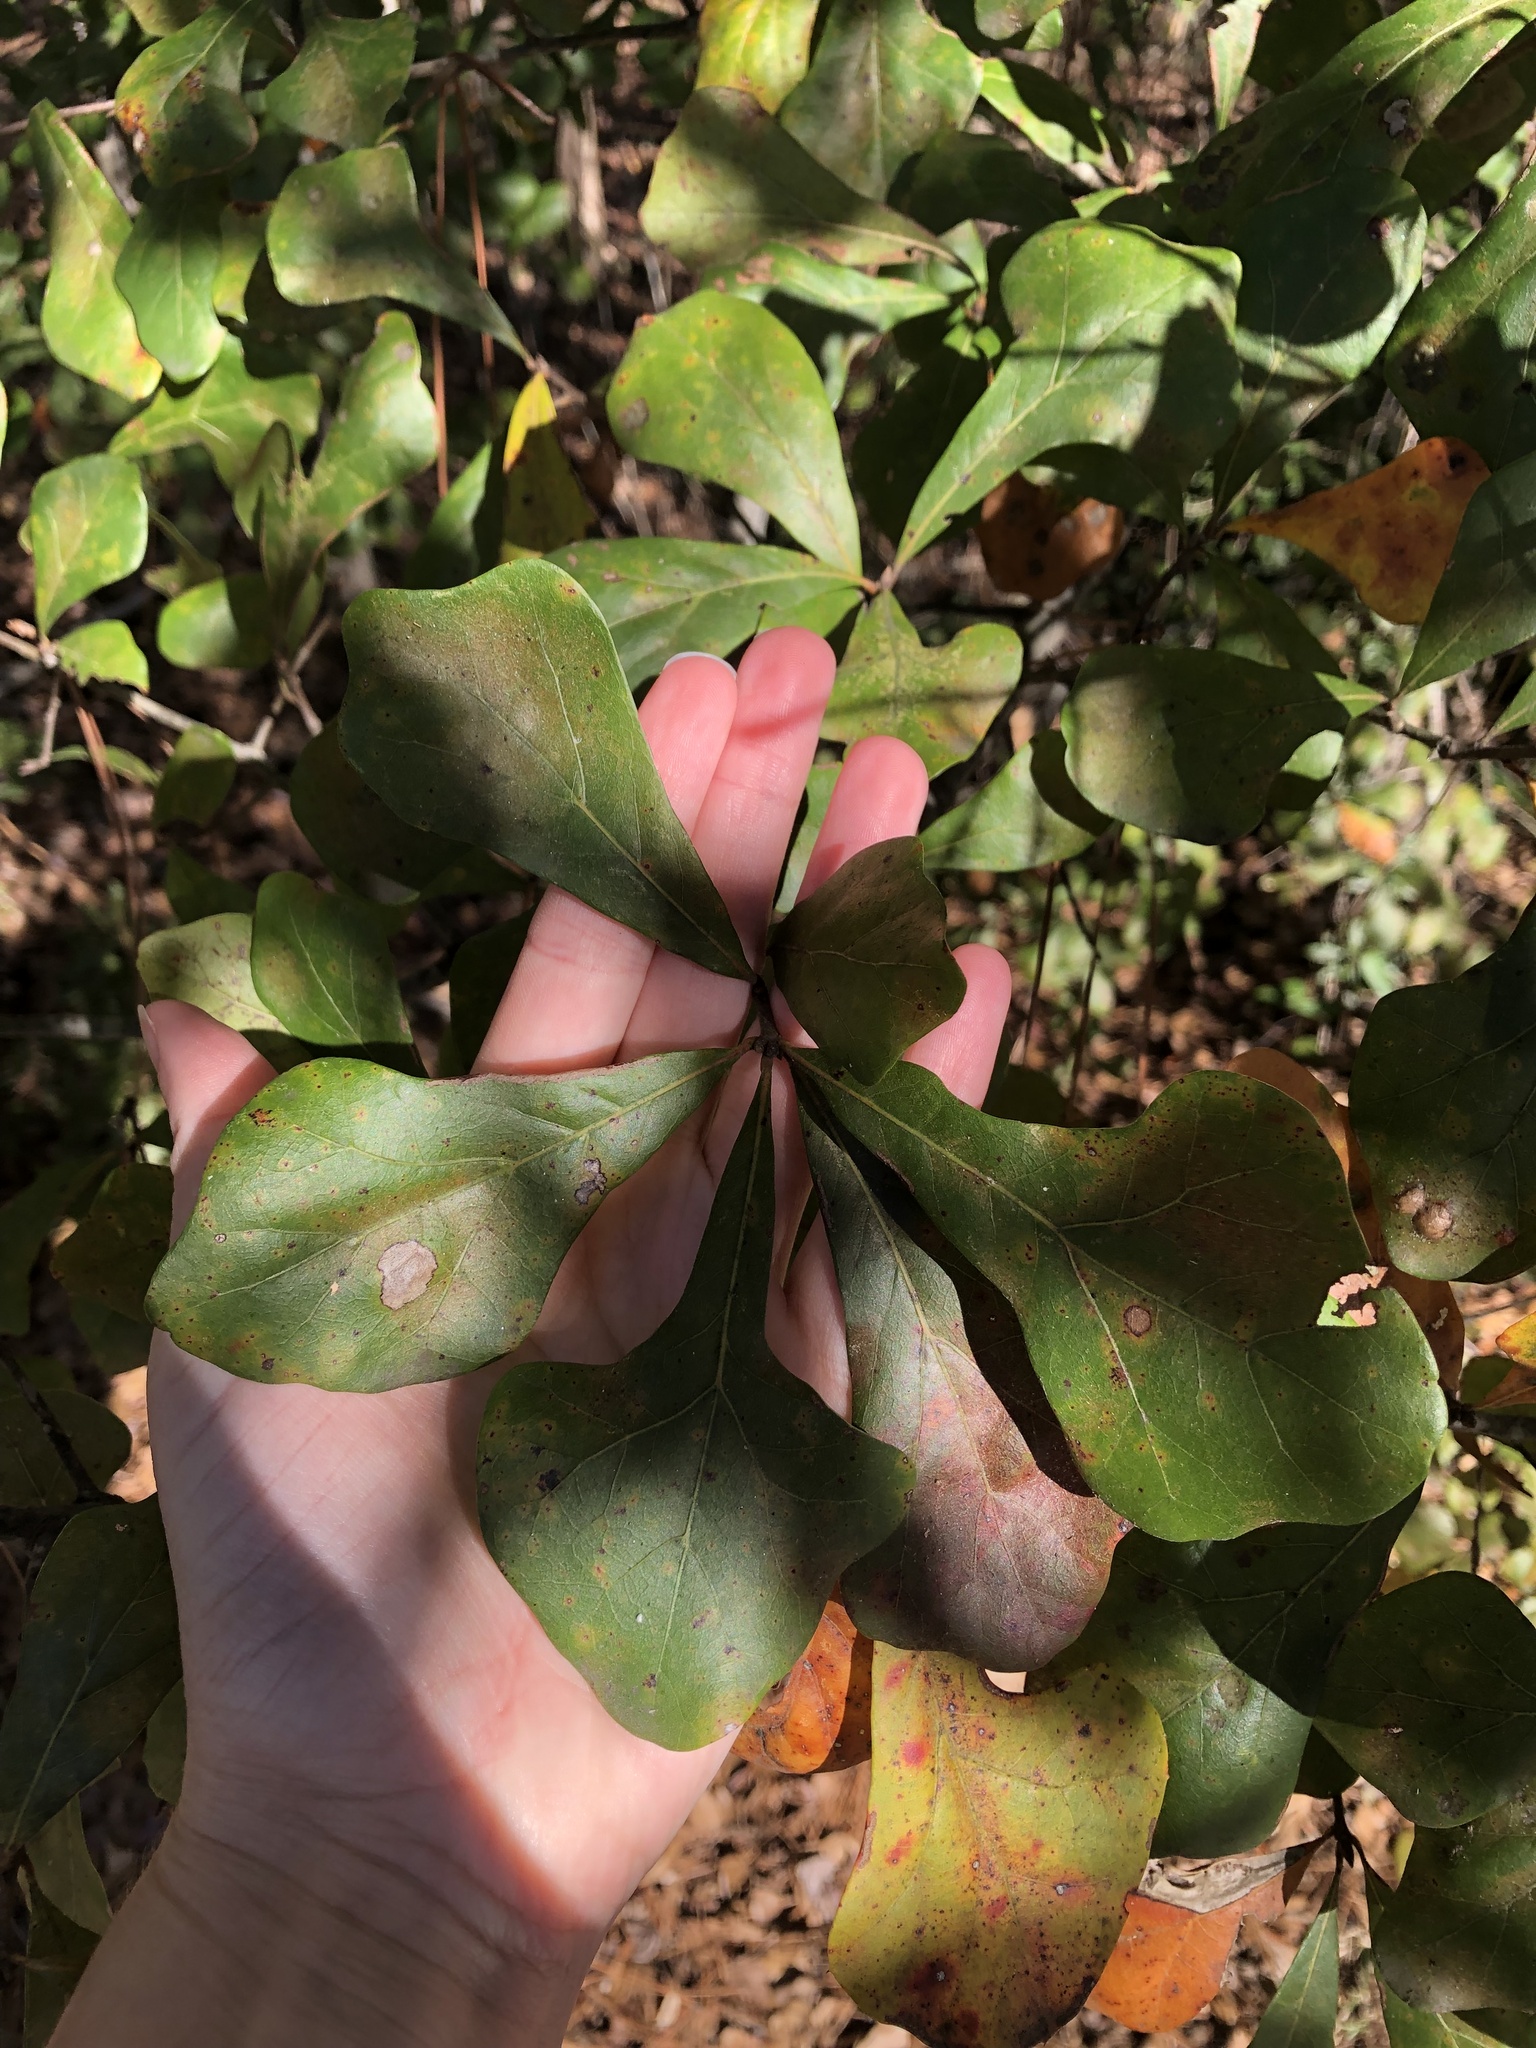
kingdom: Plantae
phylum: Tracheophyta
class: Magnoliopsida
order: Fagales
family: Fagaceae
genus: Quercus
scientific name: Quercus nigra
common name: Water oak
